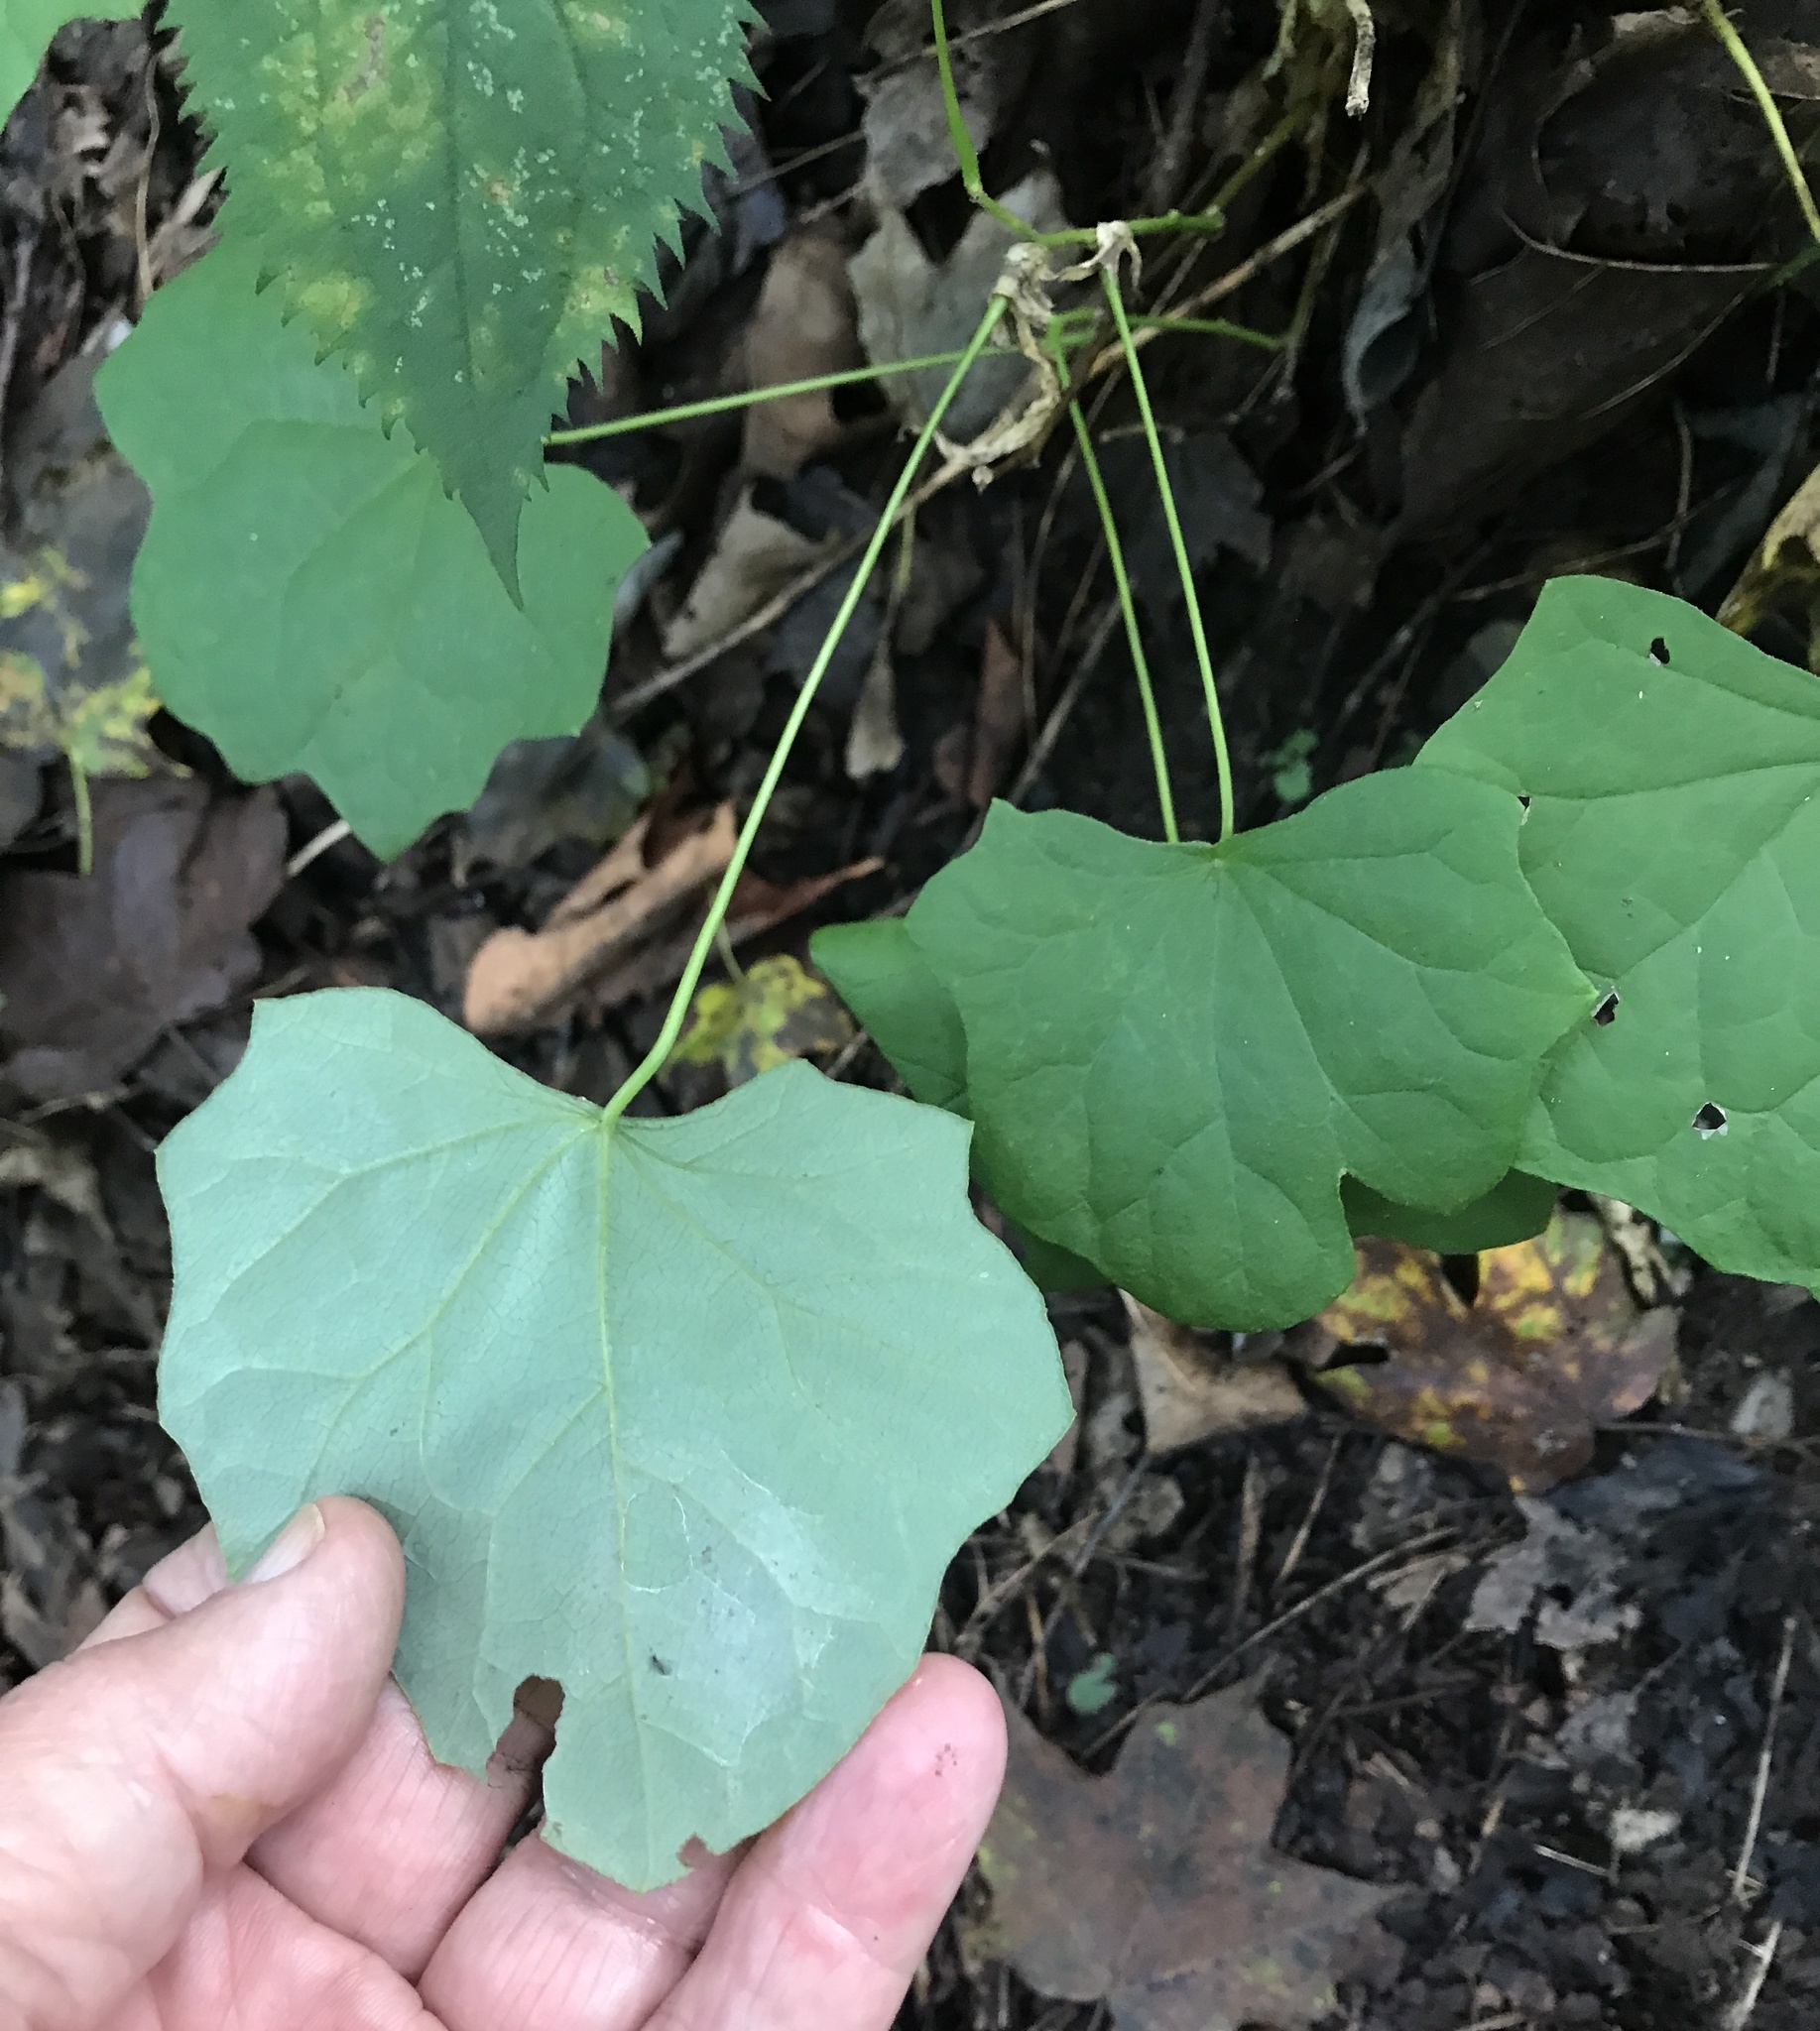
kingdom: Plantae
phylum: Tracheophyta
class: Magnoliopsida
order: Ranunculales
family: Menispermaceae
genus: Menispermum
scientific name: Menispermum canadense
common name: Moonseed
